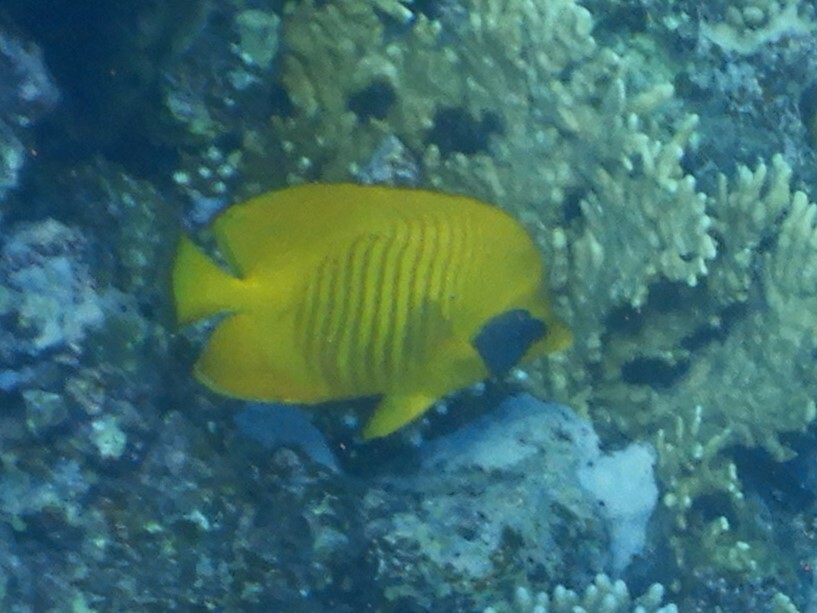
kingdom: Animalia
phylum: Chordata
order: Perciformes
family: Chaetodontidae
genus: Chaetodon
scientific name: Chaetodon semilarvatus
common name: Golden butterflyfish
